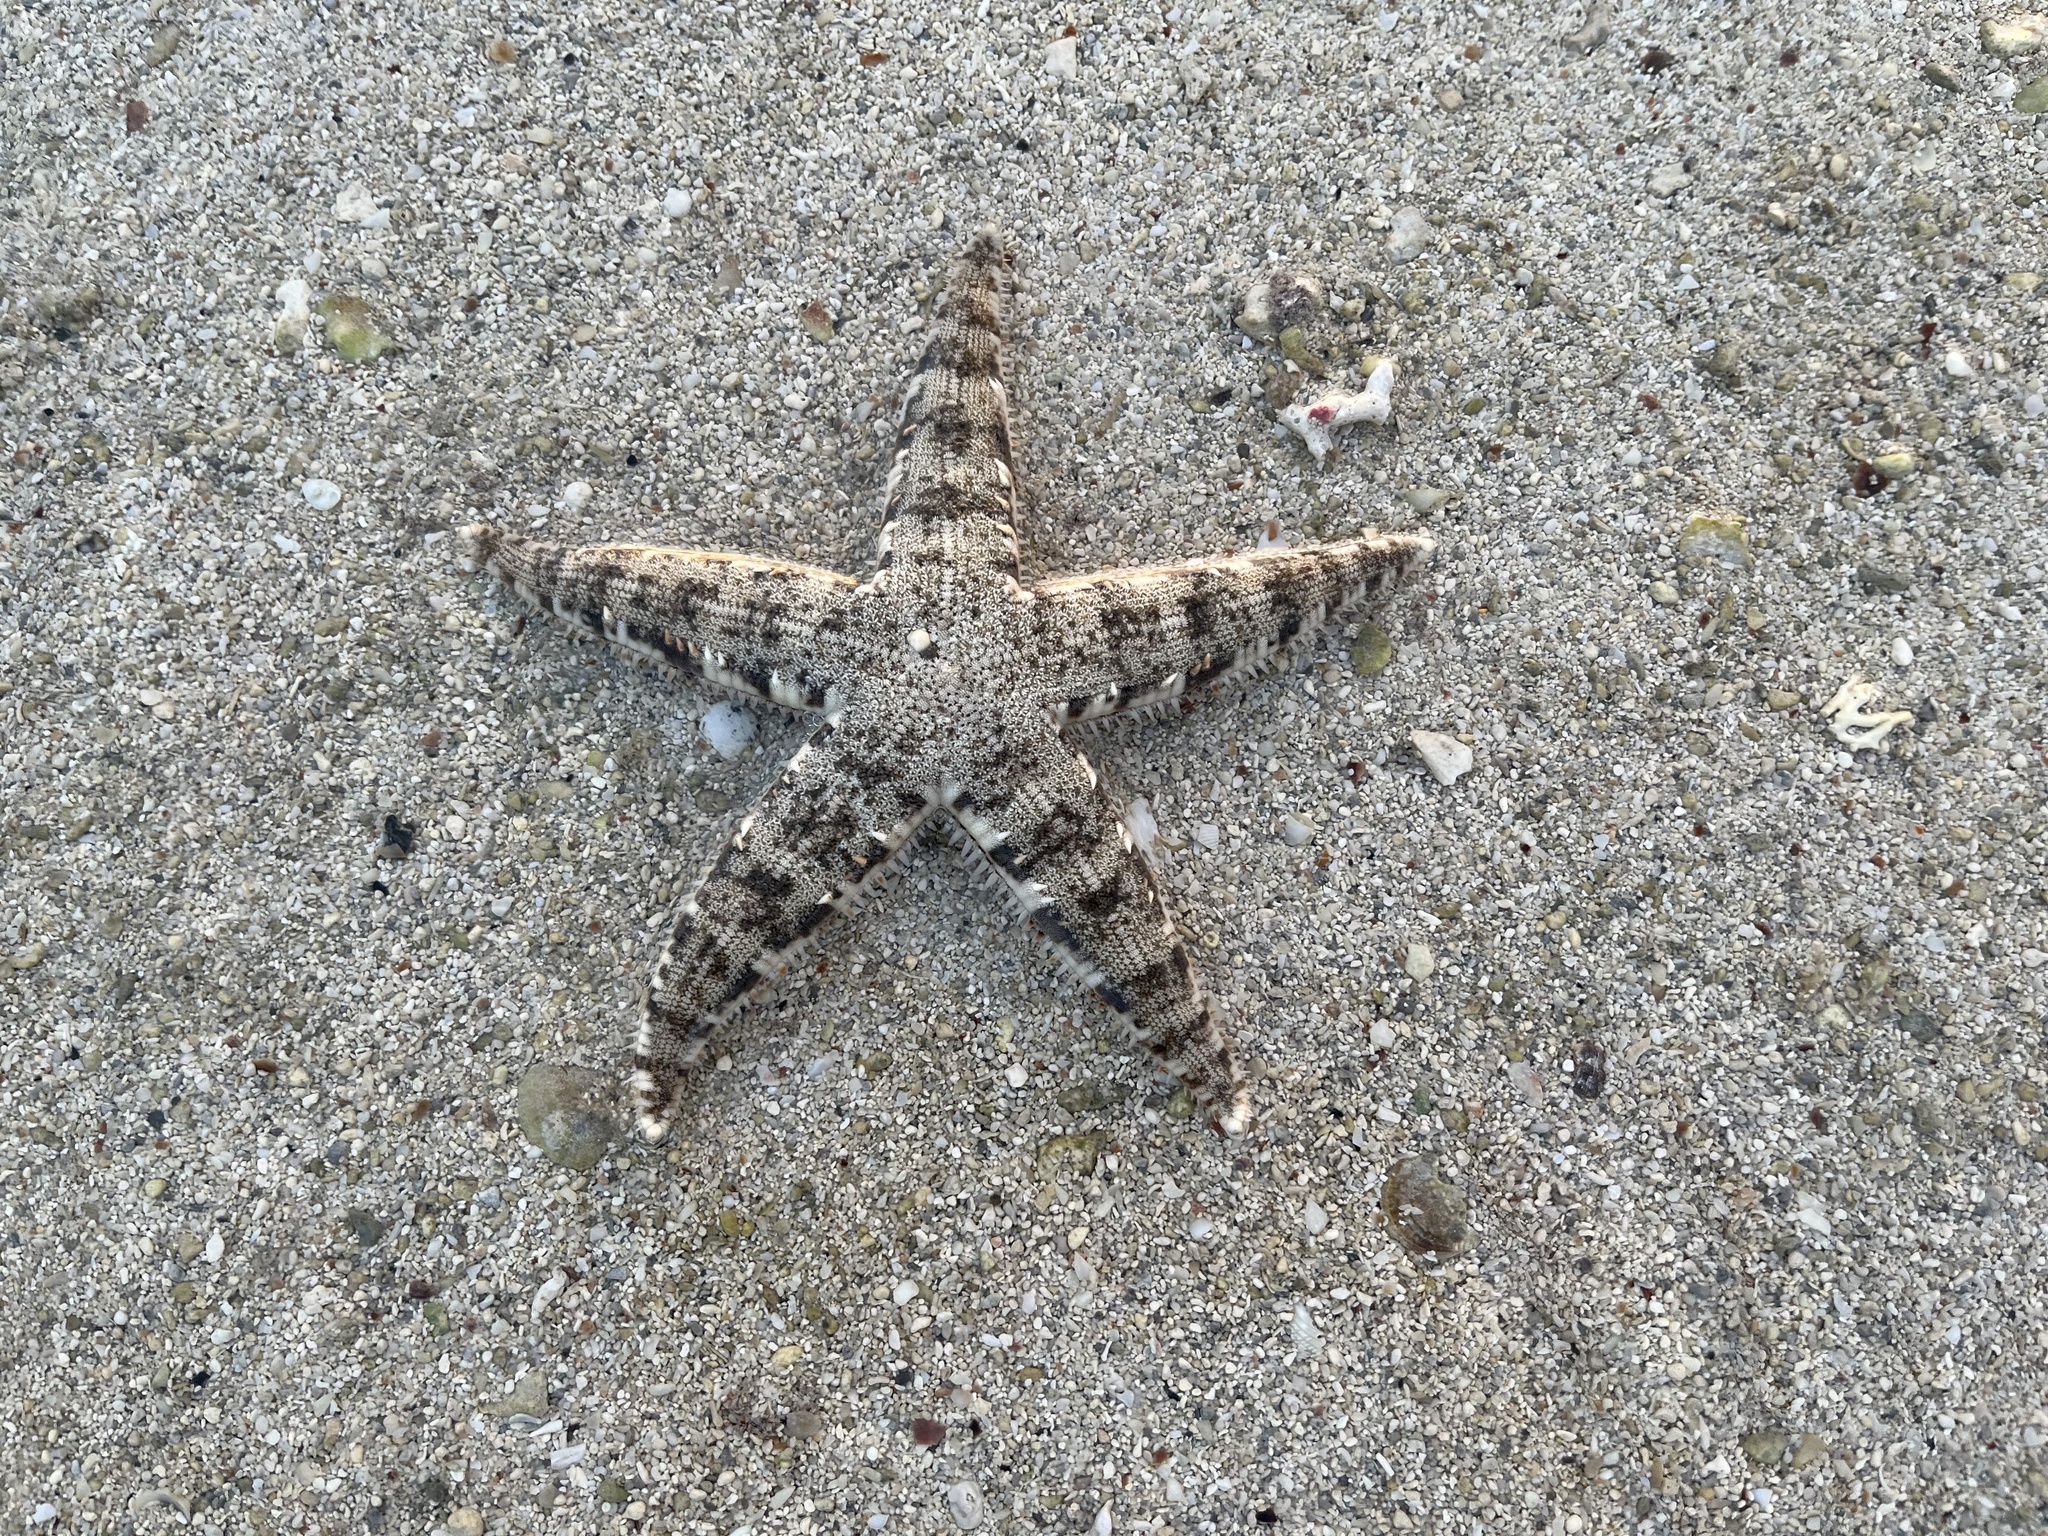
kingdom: Animalia
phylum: Echinodermata
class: Asteroidea
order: Valvatida
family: Archasteridae
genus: Archaster
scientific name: Archaster typicus
